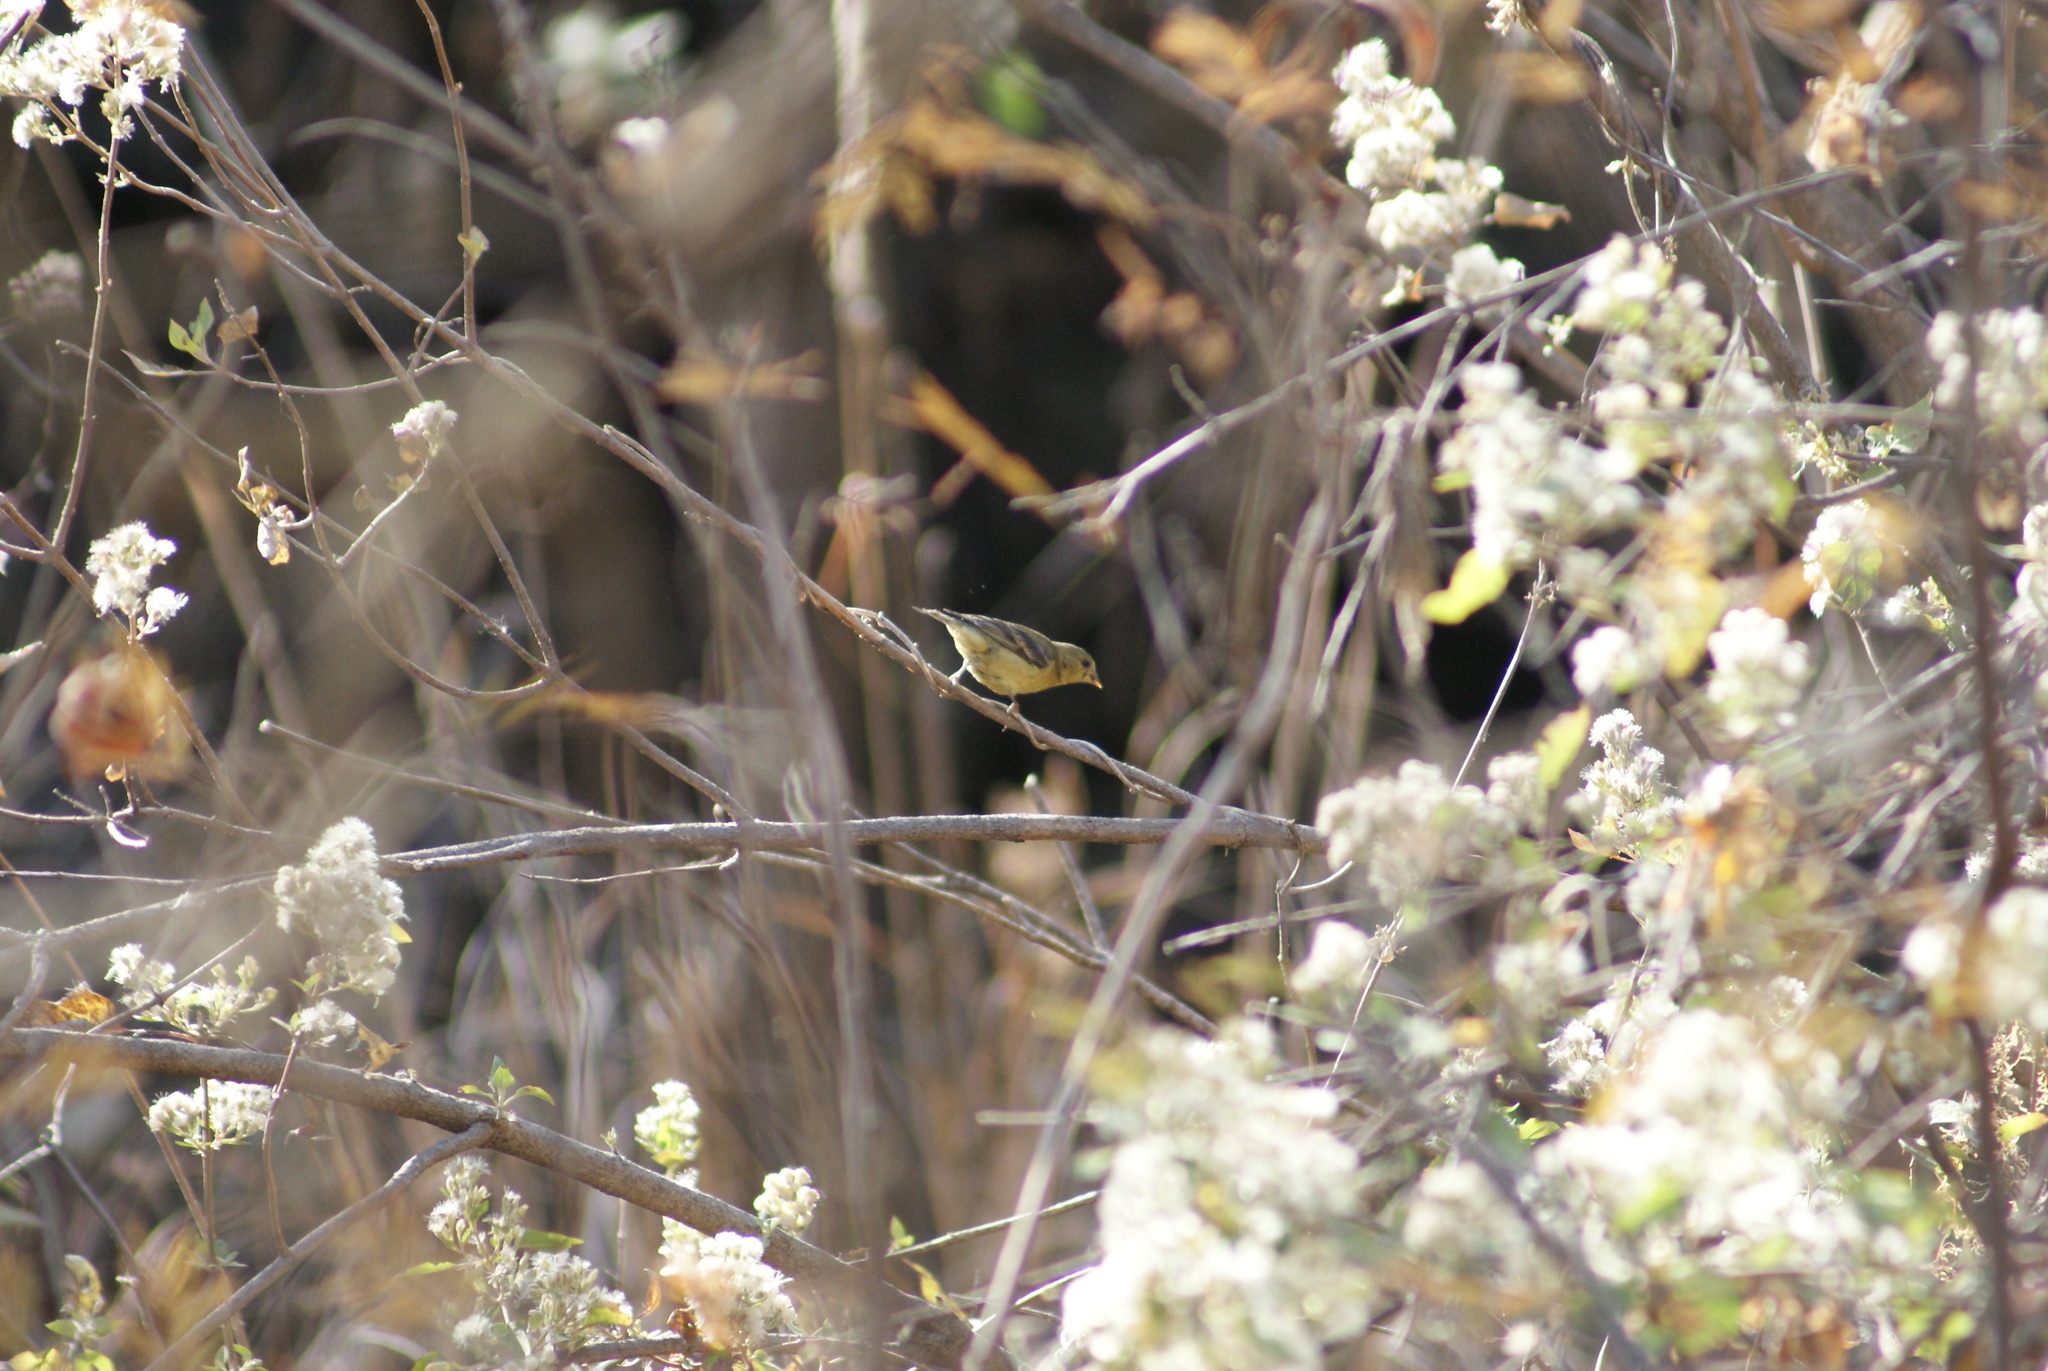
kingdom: Animalia
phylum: Chordata
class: Aves
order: Passeriformes
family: Fringillidae
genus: Spinus
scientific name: Spinus psaltria
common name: Lesser goldfinch
